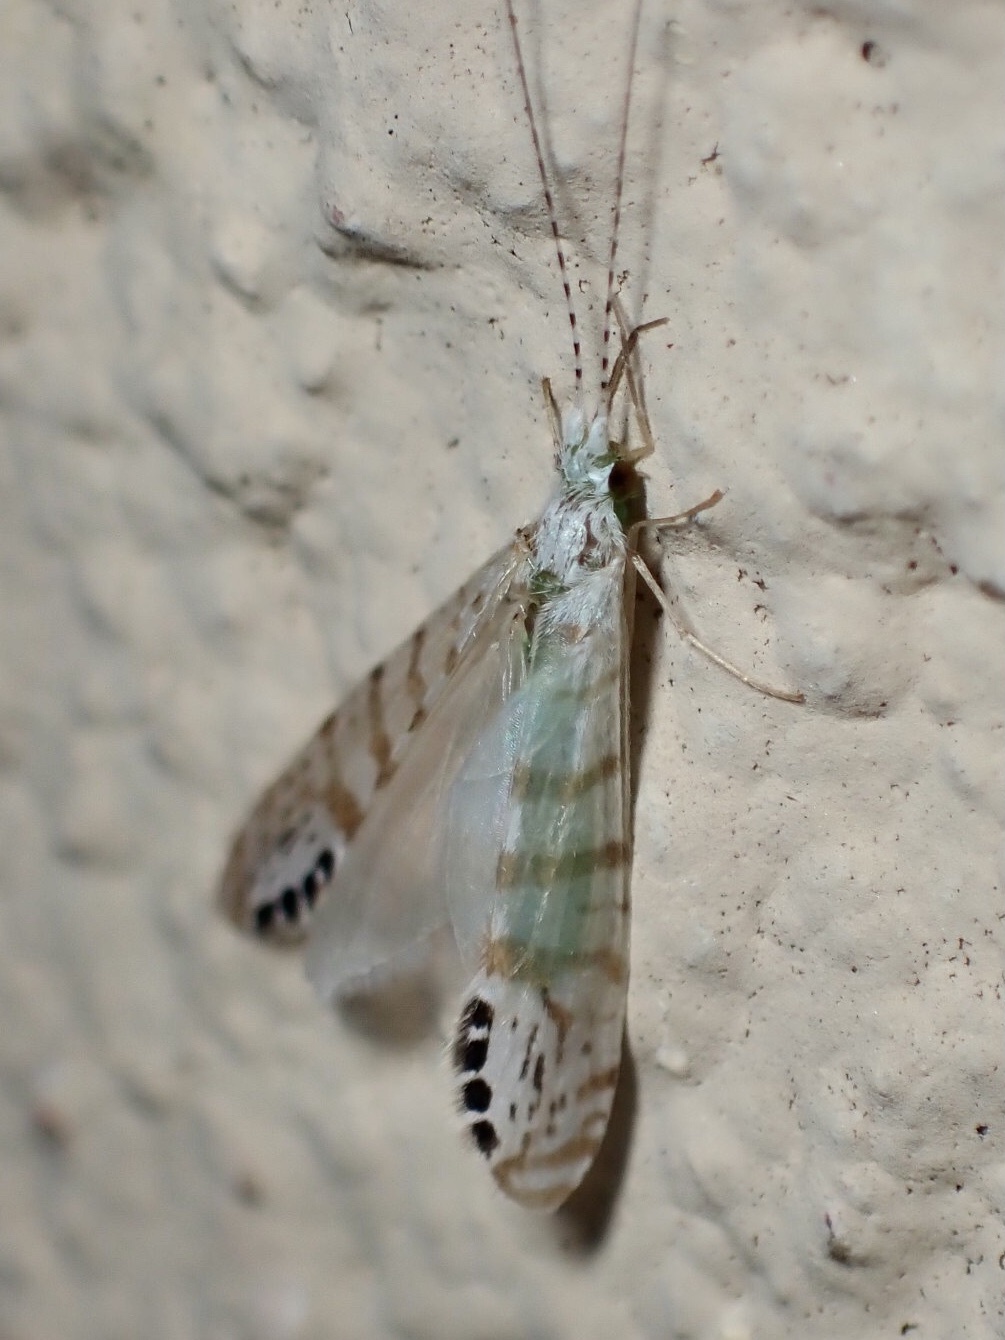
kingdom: Animalia
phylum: Arthropoda
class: Insecta
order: Trichoptera
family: Leptoceridae
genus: Nectopsyche
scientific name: Nectopsyche exquisita
